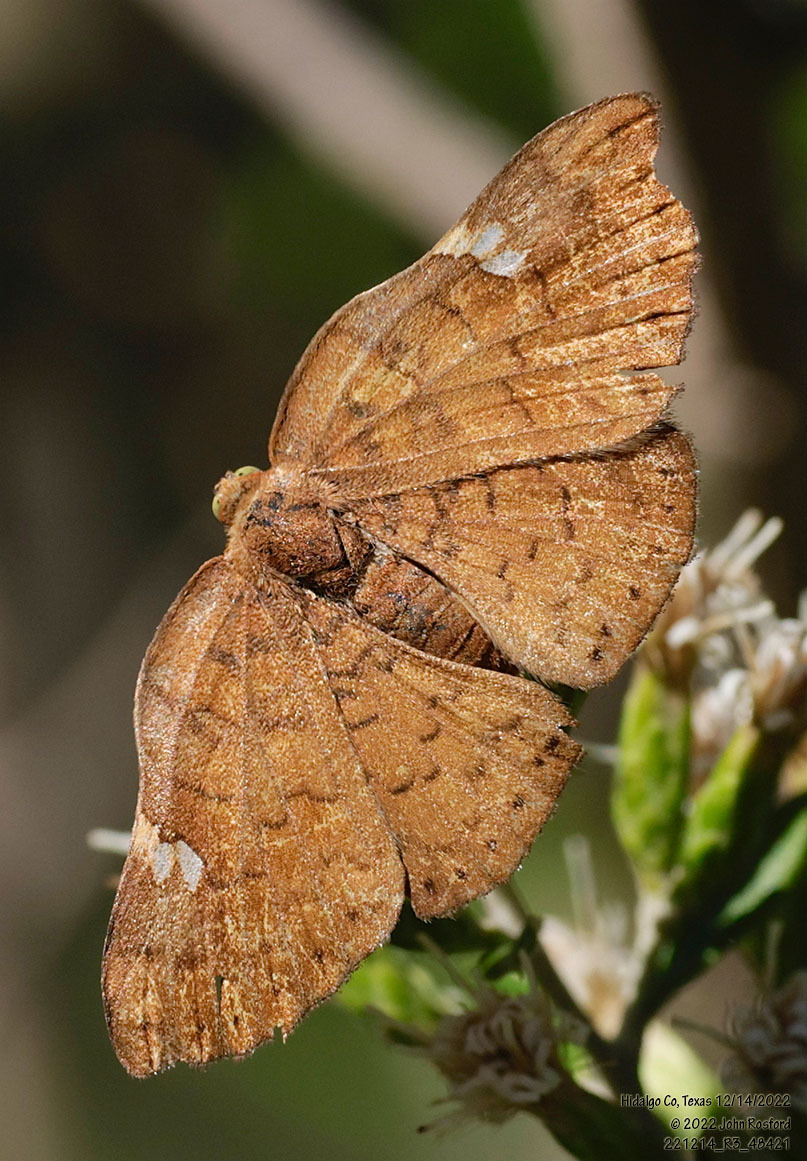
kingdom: Animalia
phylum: Arthropoda
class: Insecta
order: Lepidoptera
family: Riodinidae
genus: Curvie
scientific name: Curvie emesia
